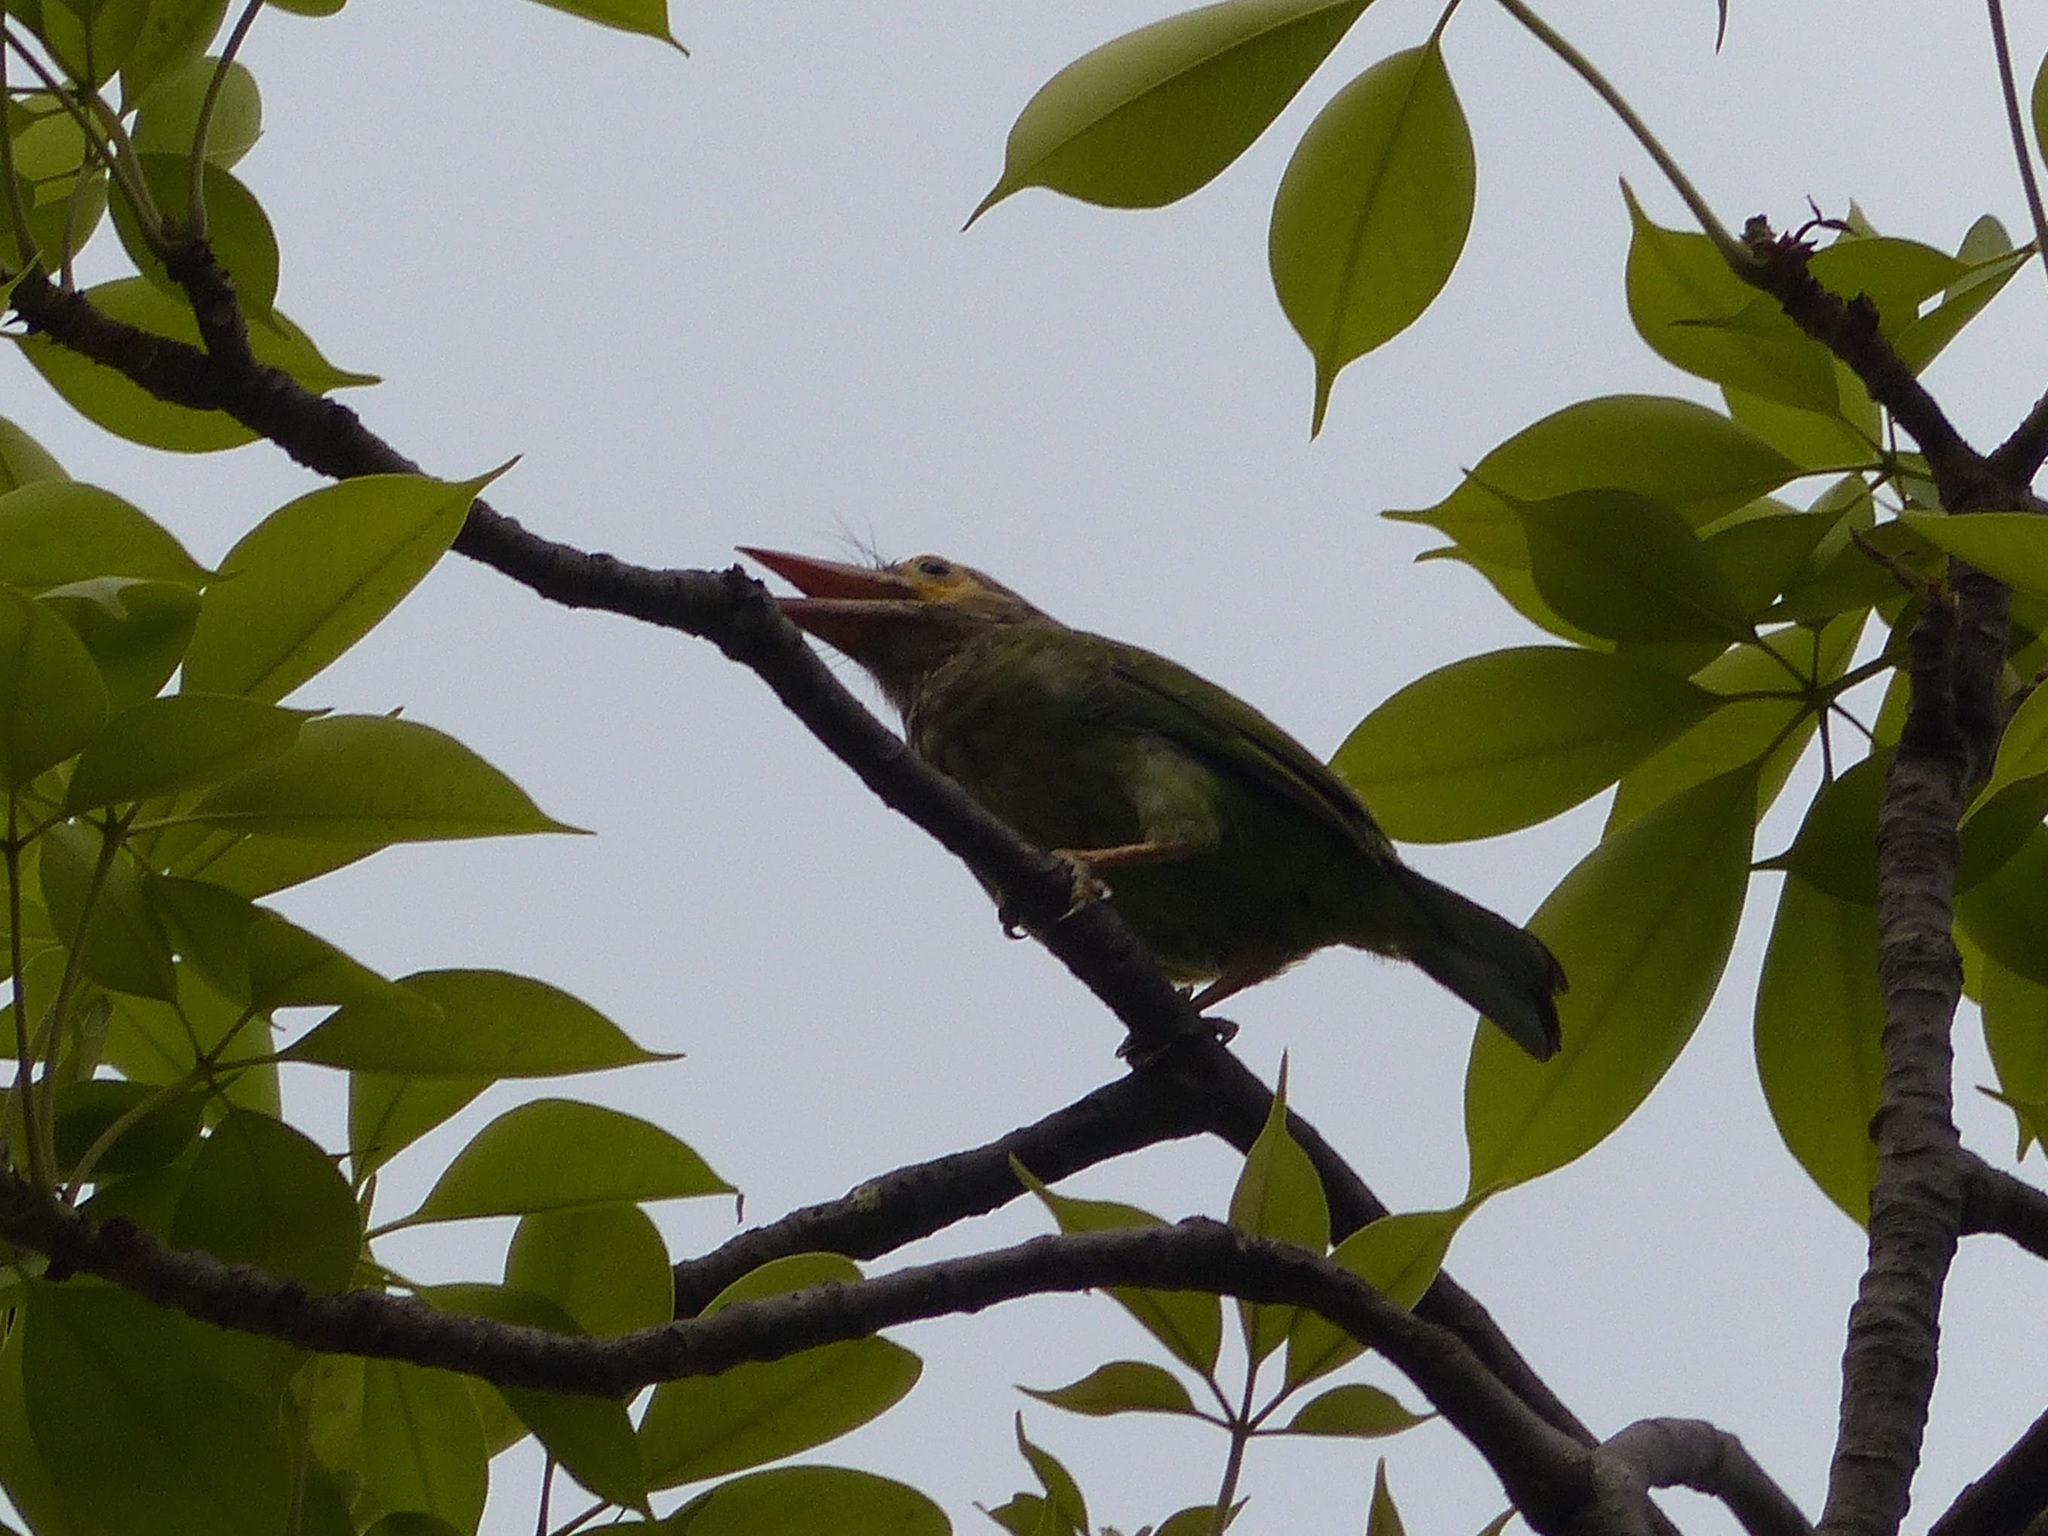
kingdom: Animalia
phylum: Chordata
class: Aves
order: Piciformes
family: Megalaimidae
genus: Psilopogon
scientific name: Psilopogon zeylanicus
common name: Brown-headed barbet
